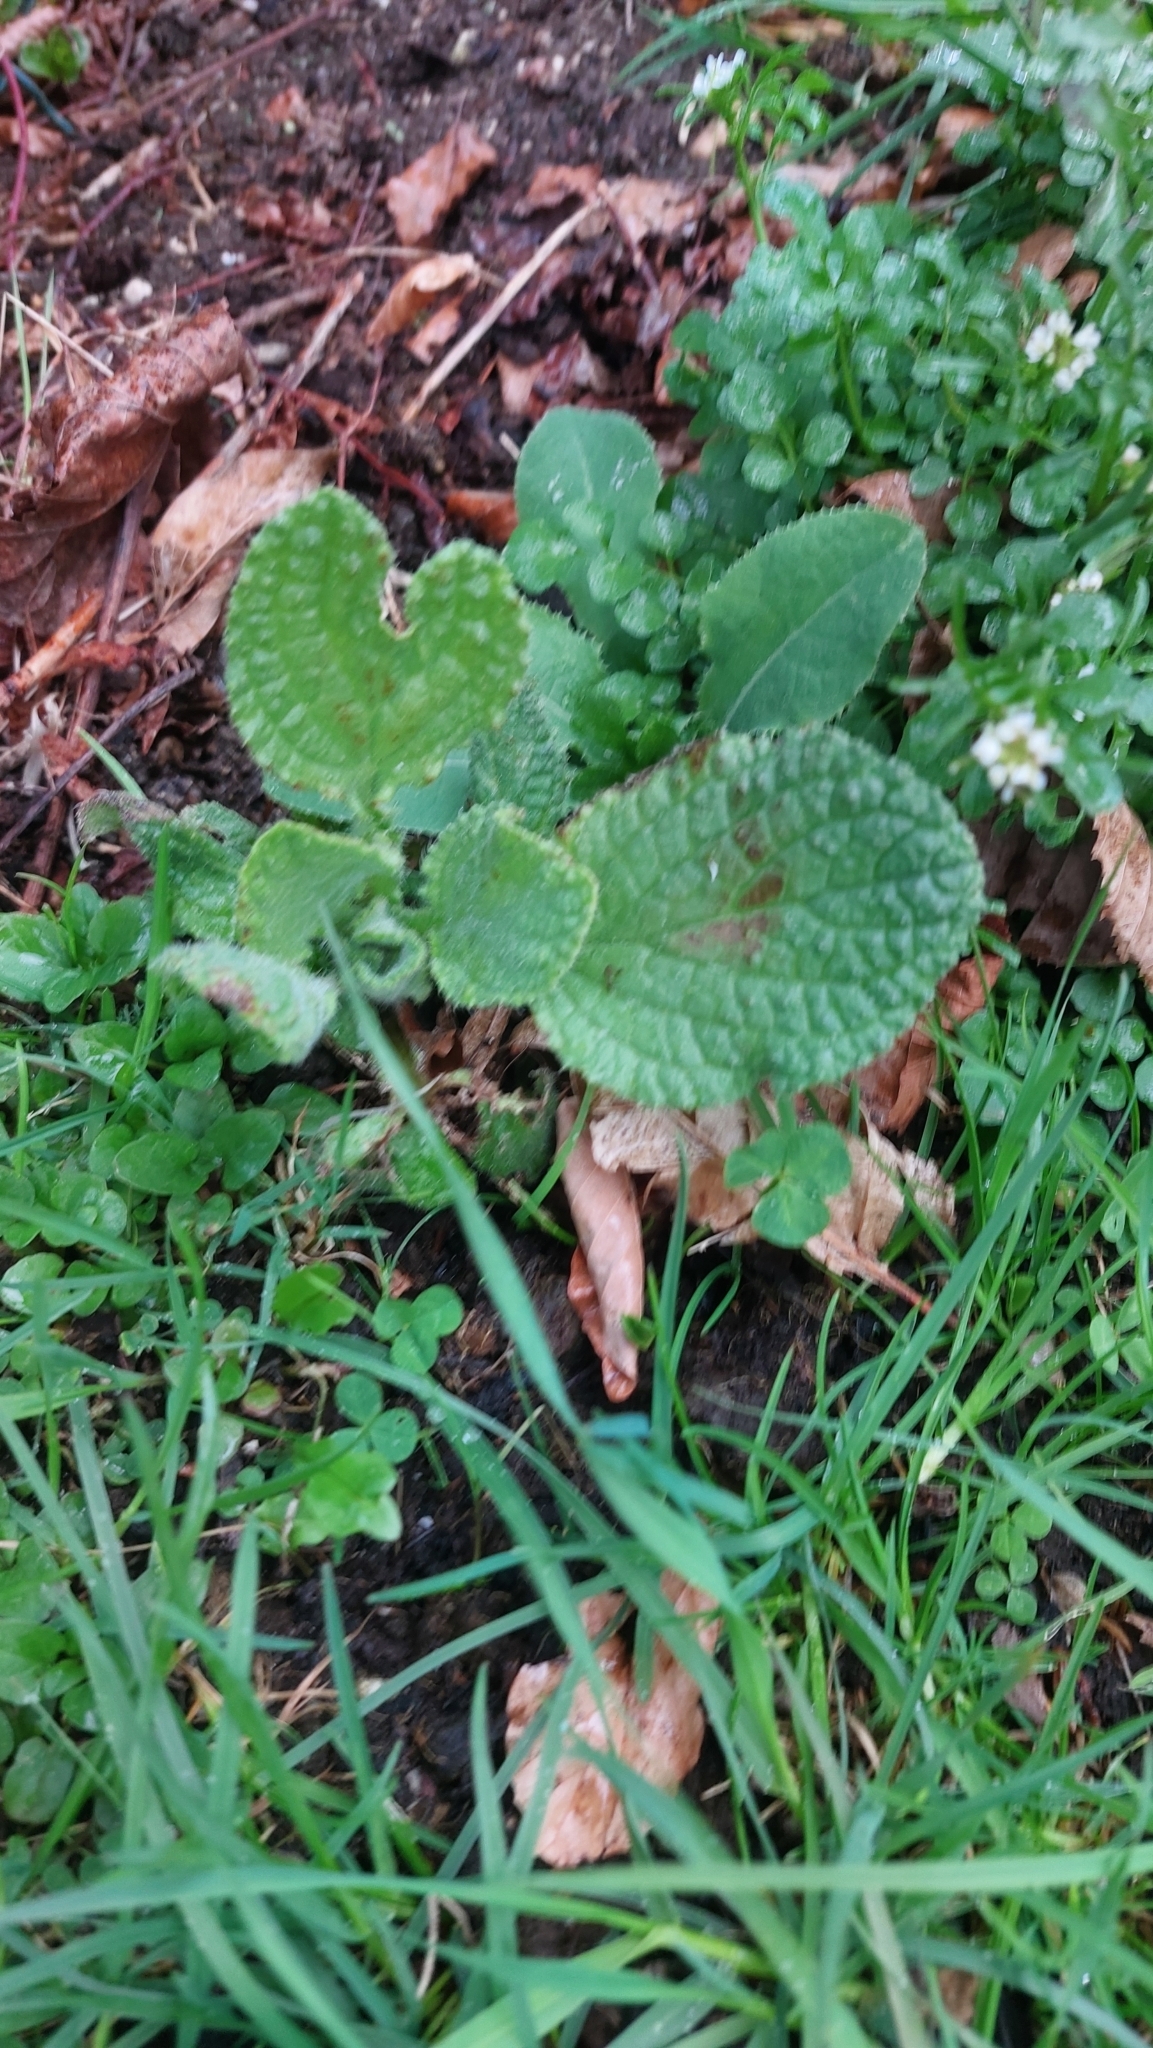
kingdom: Plantae
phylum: Tracheophyta
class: Magnoliopsida
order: Boraginales
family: Boraginaceae
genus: Borago
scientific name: Borago officinalis
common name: Borage
